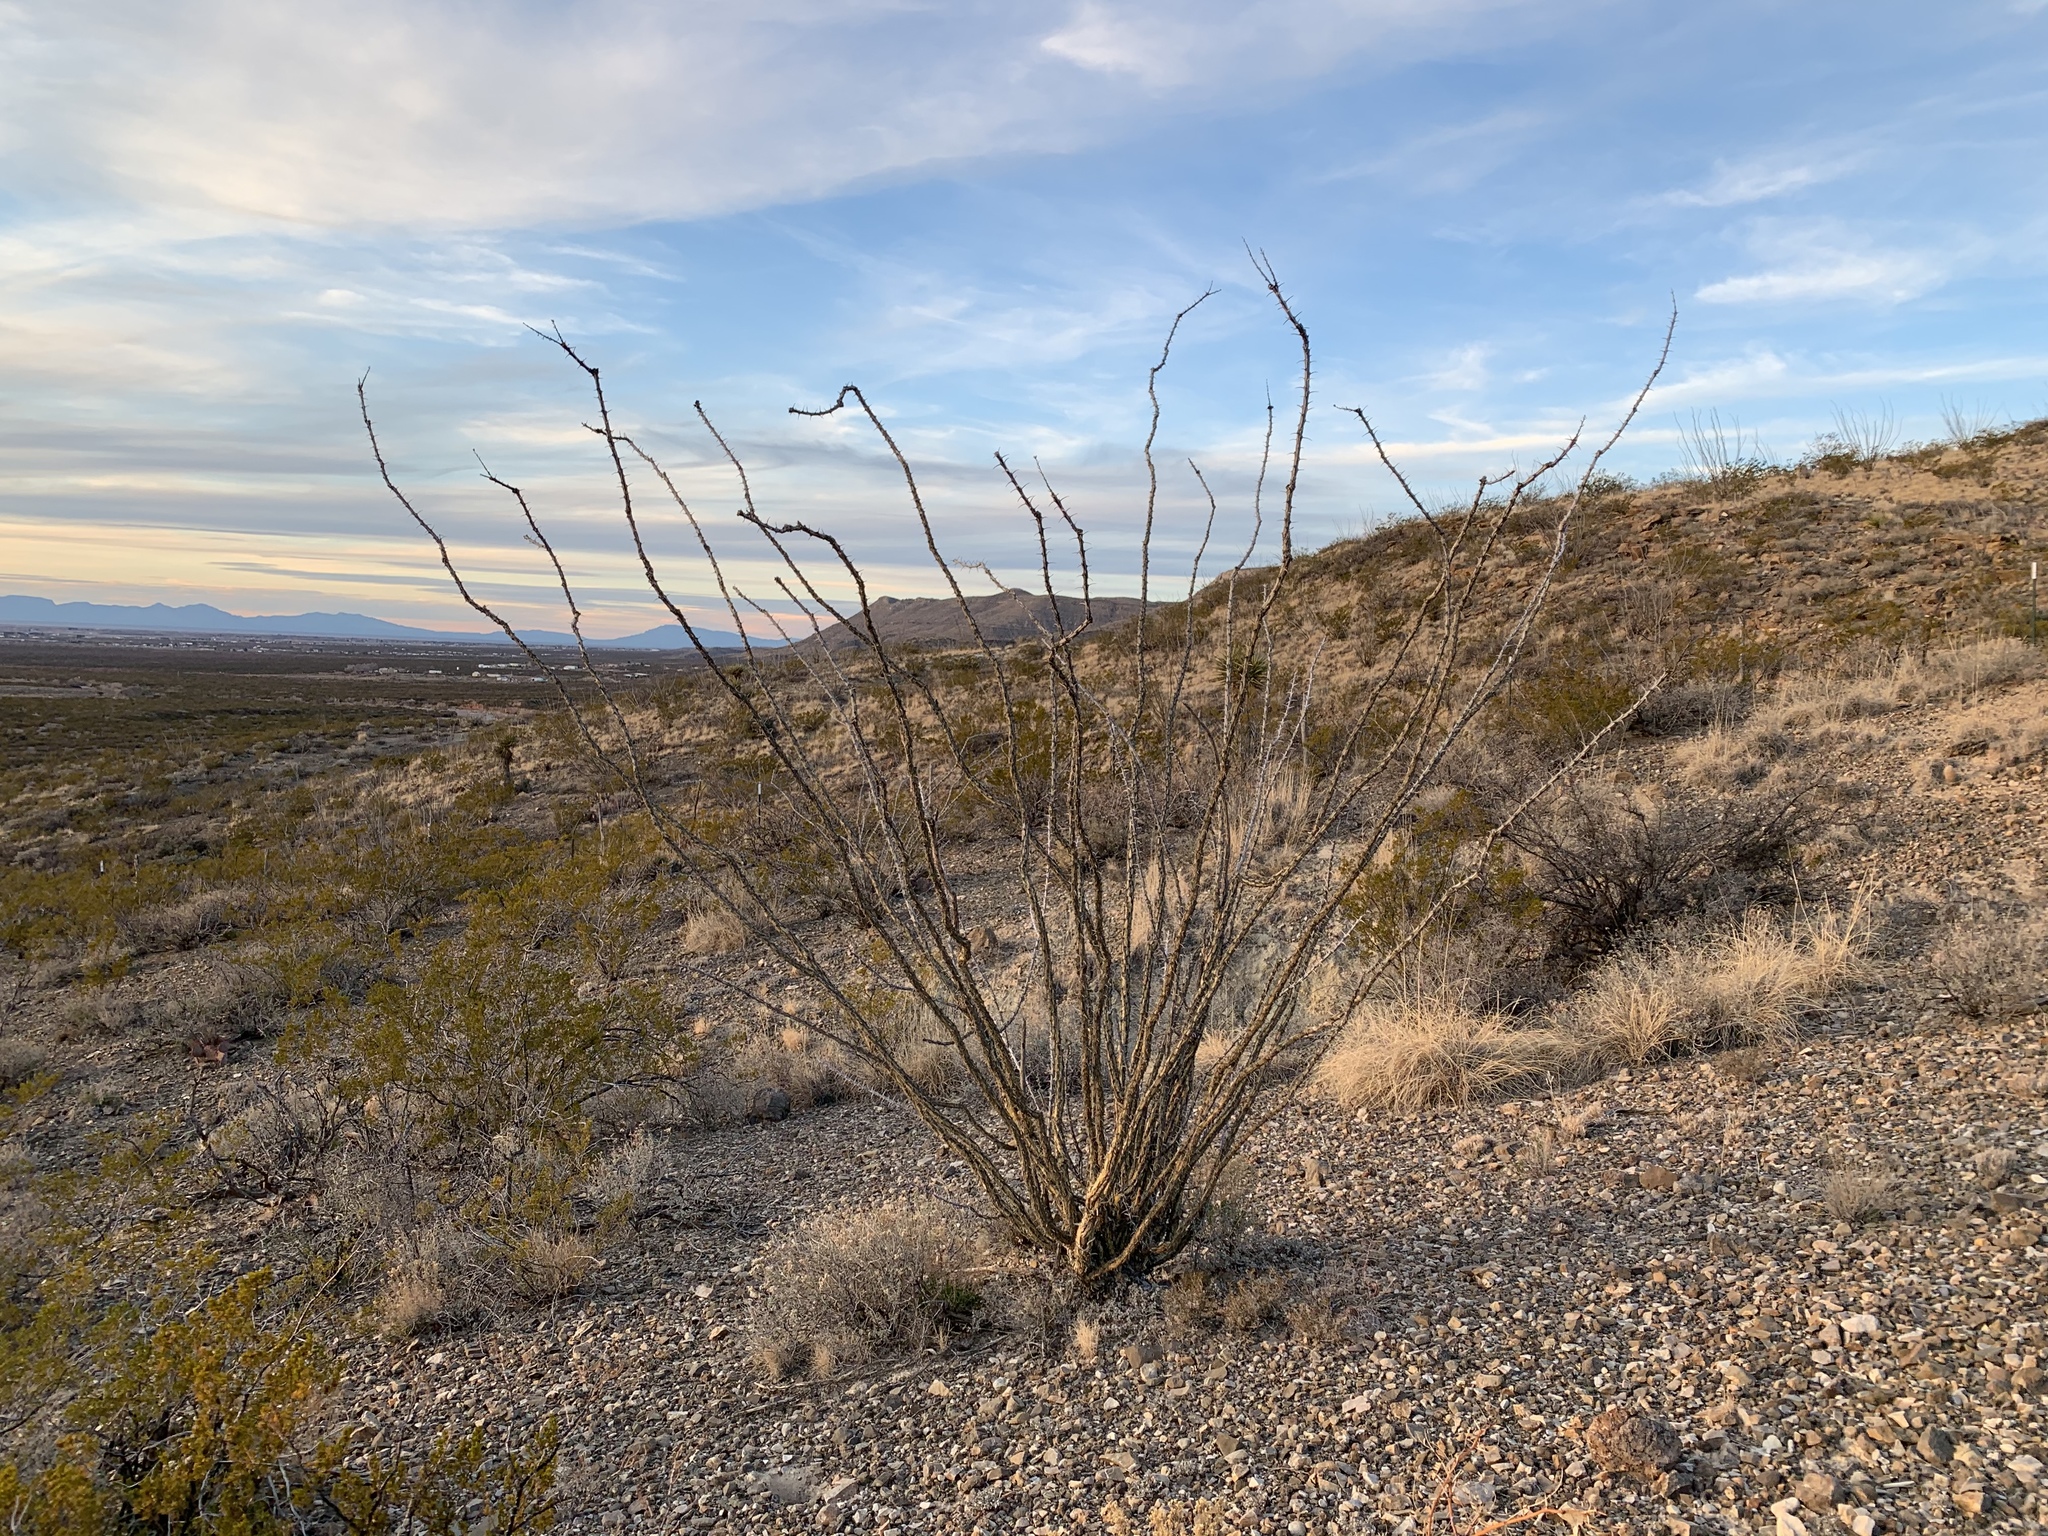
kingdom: Plantae
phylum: Tracheophyta
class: Magnoliopsida
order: Ericales
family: Fouquieriaceae
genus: Fouquieria
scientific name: Fouquieria splendens
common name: Vine-cactus
